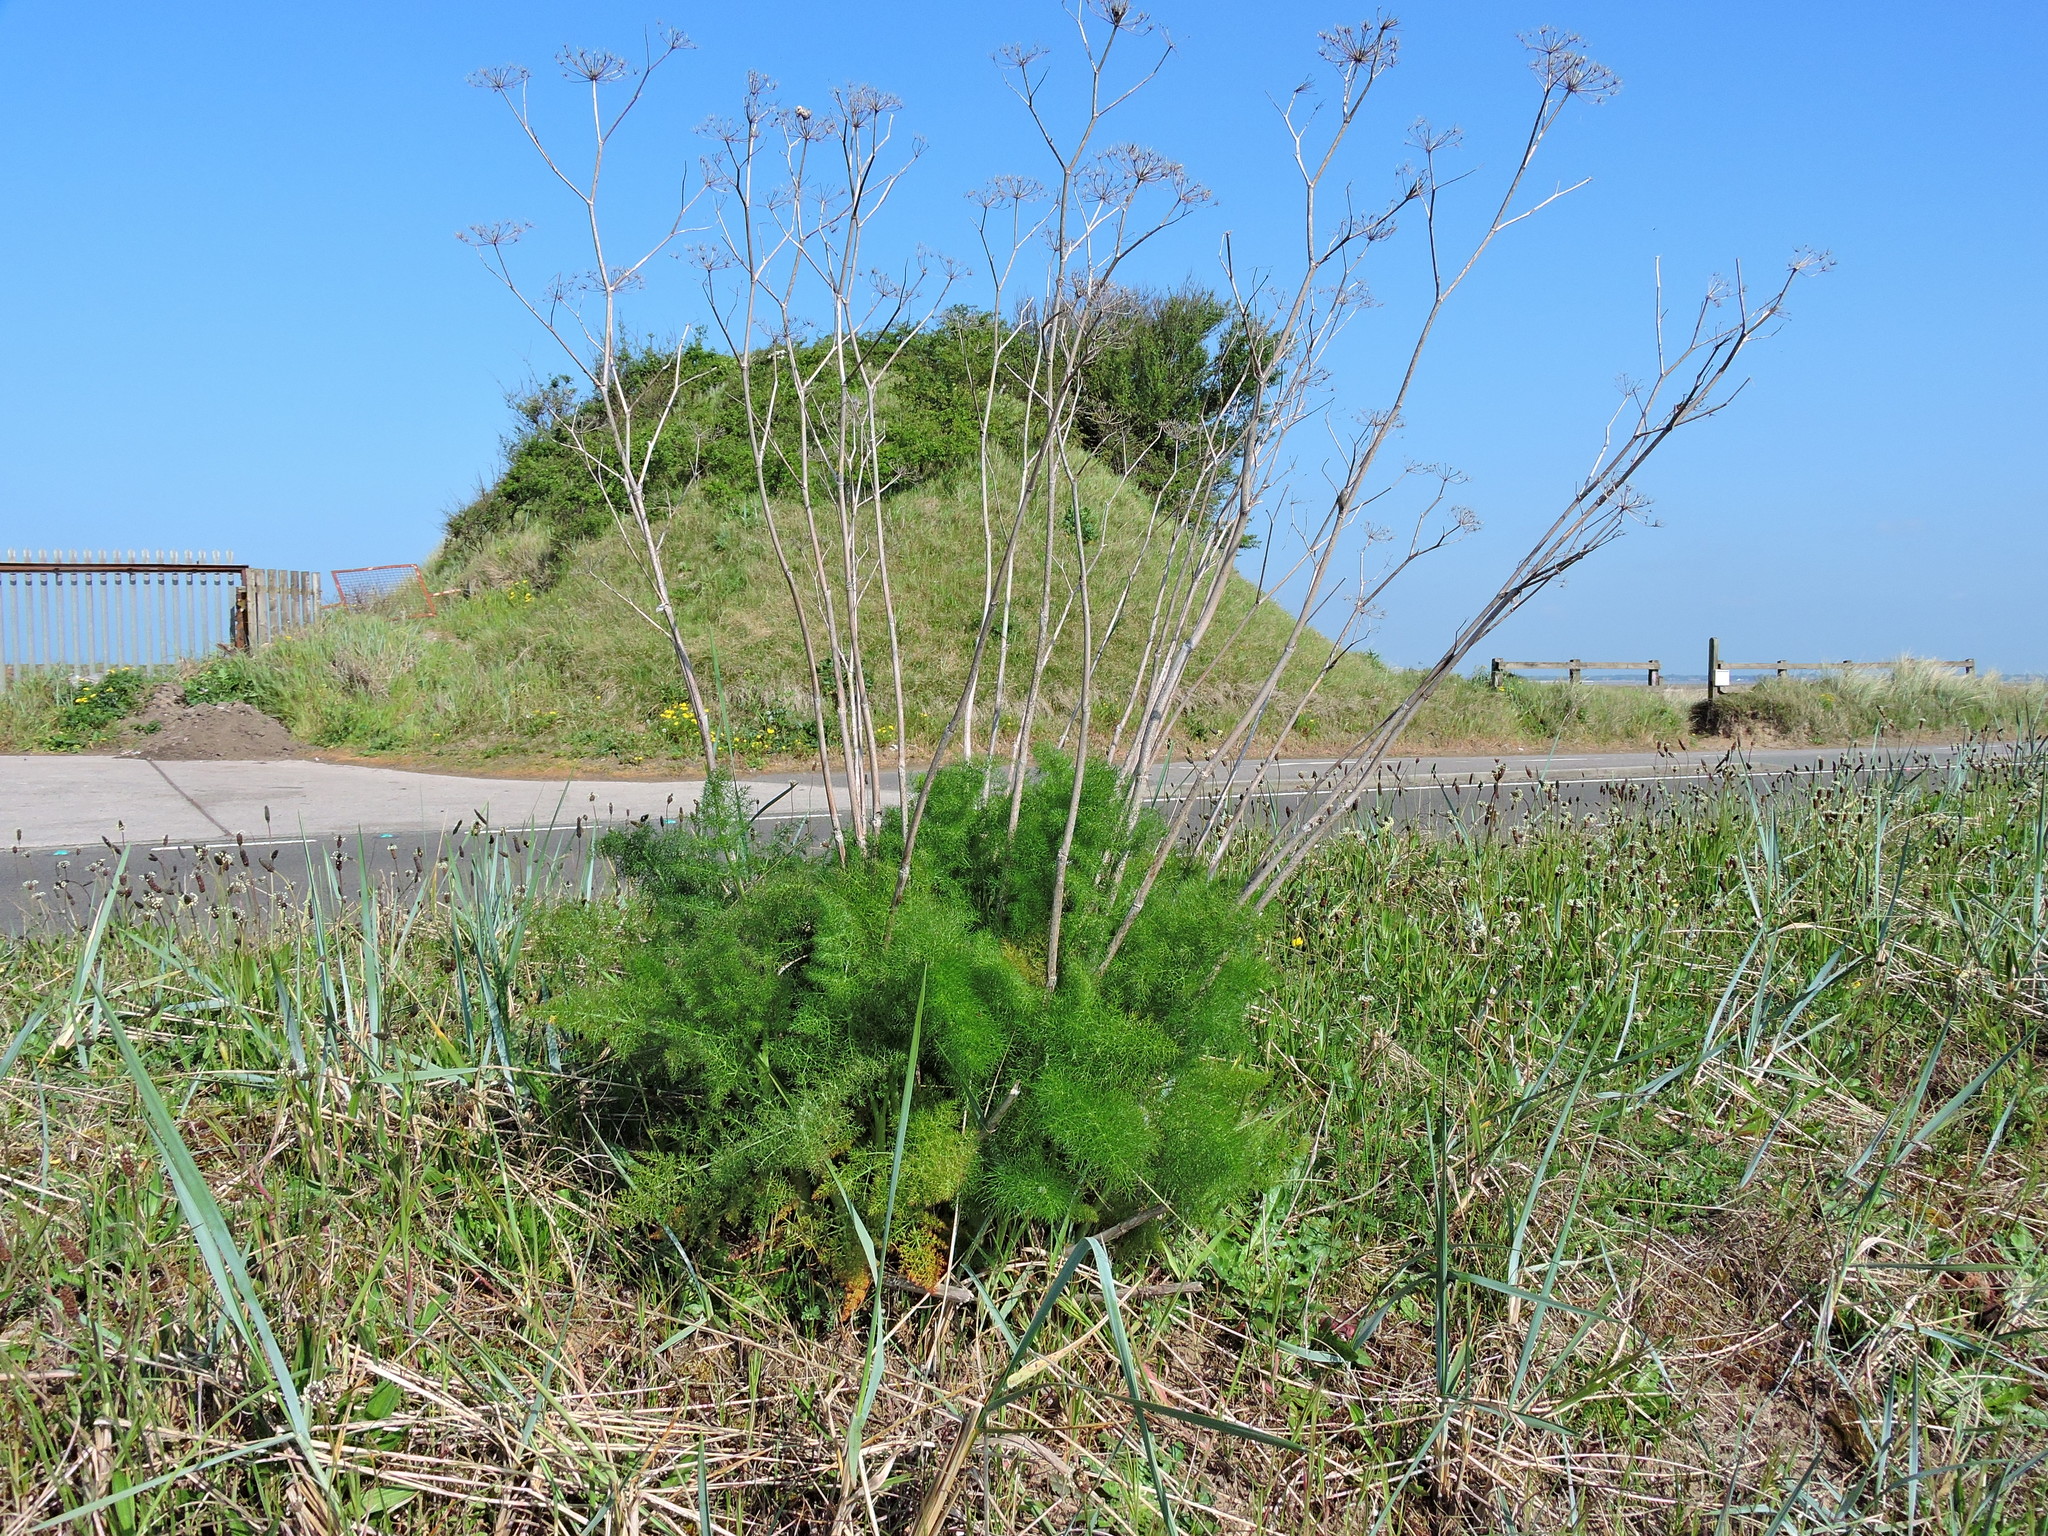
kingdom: Plantae
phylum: Tracheophyta
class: Magnoliopsida
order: Apiales
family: Apiaceae
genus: Foeniculum
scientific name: Foeniculum vulgare
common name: Fennel
